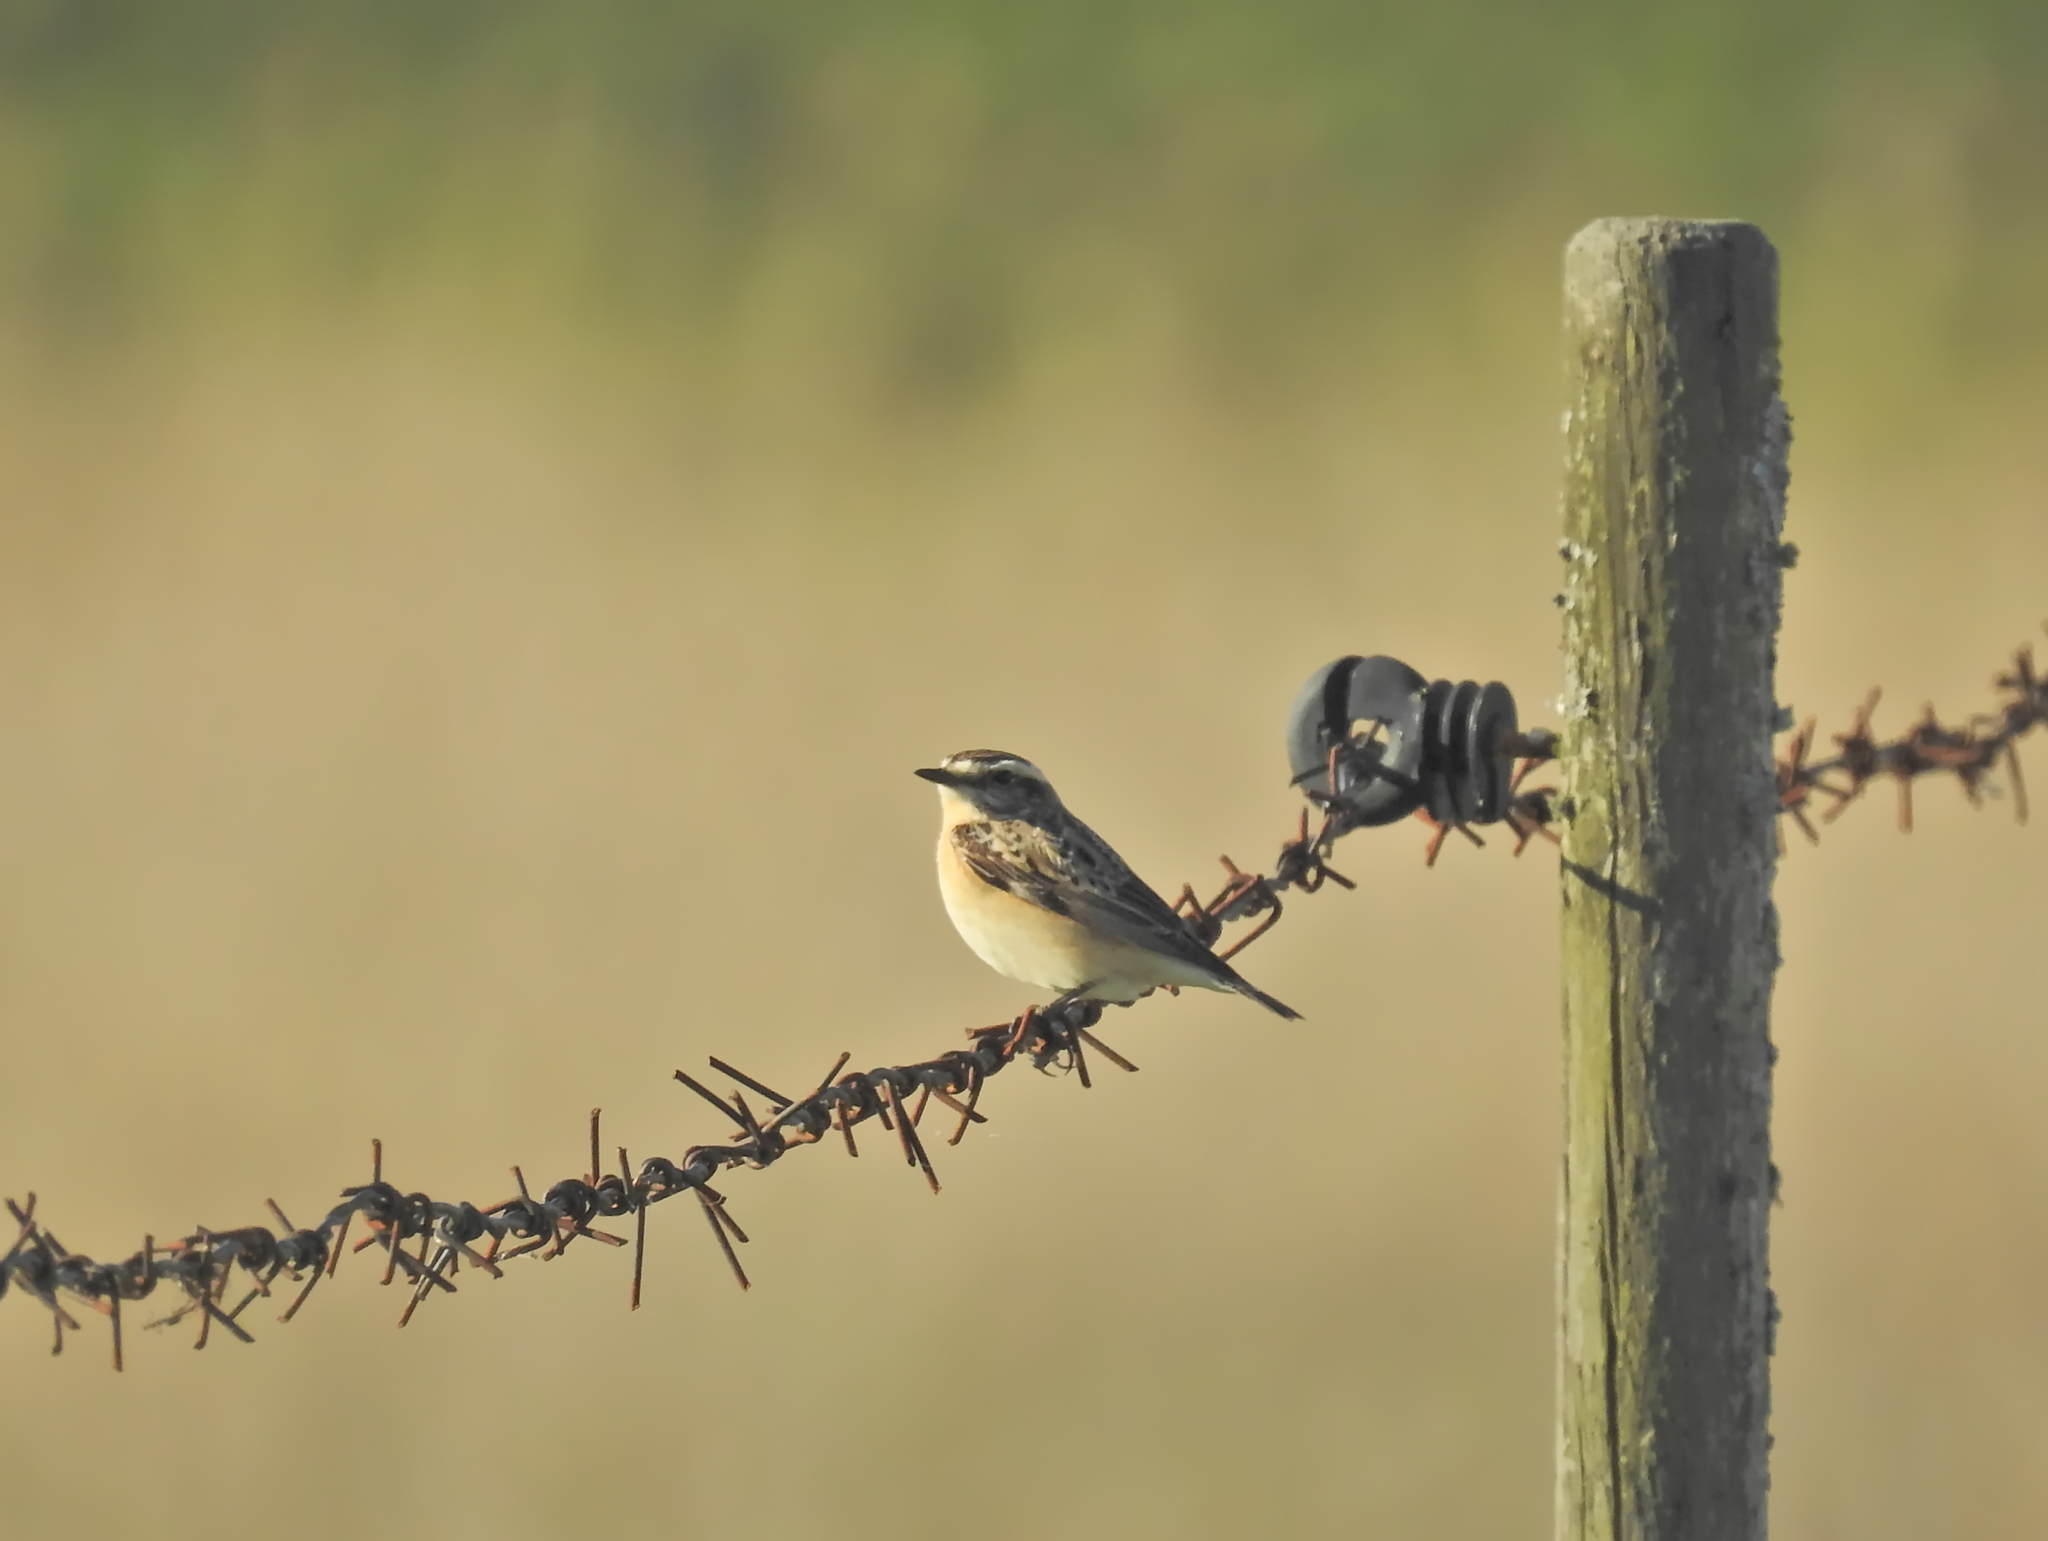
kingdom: Animalia
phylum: Chordata
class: Aves
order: Passeriformes
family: Muscicapidae
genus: Saxicola
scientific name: Saxicola rubetra
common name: Whinchat
